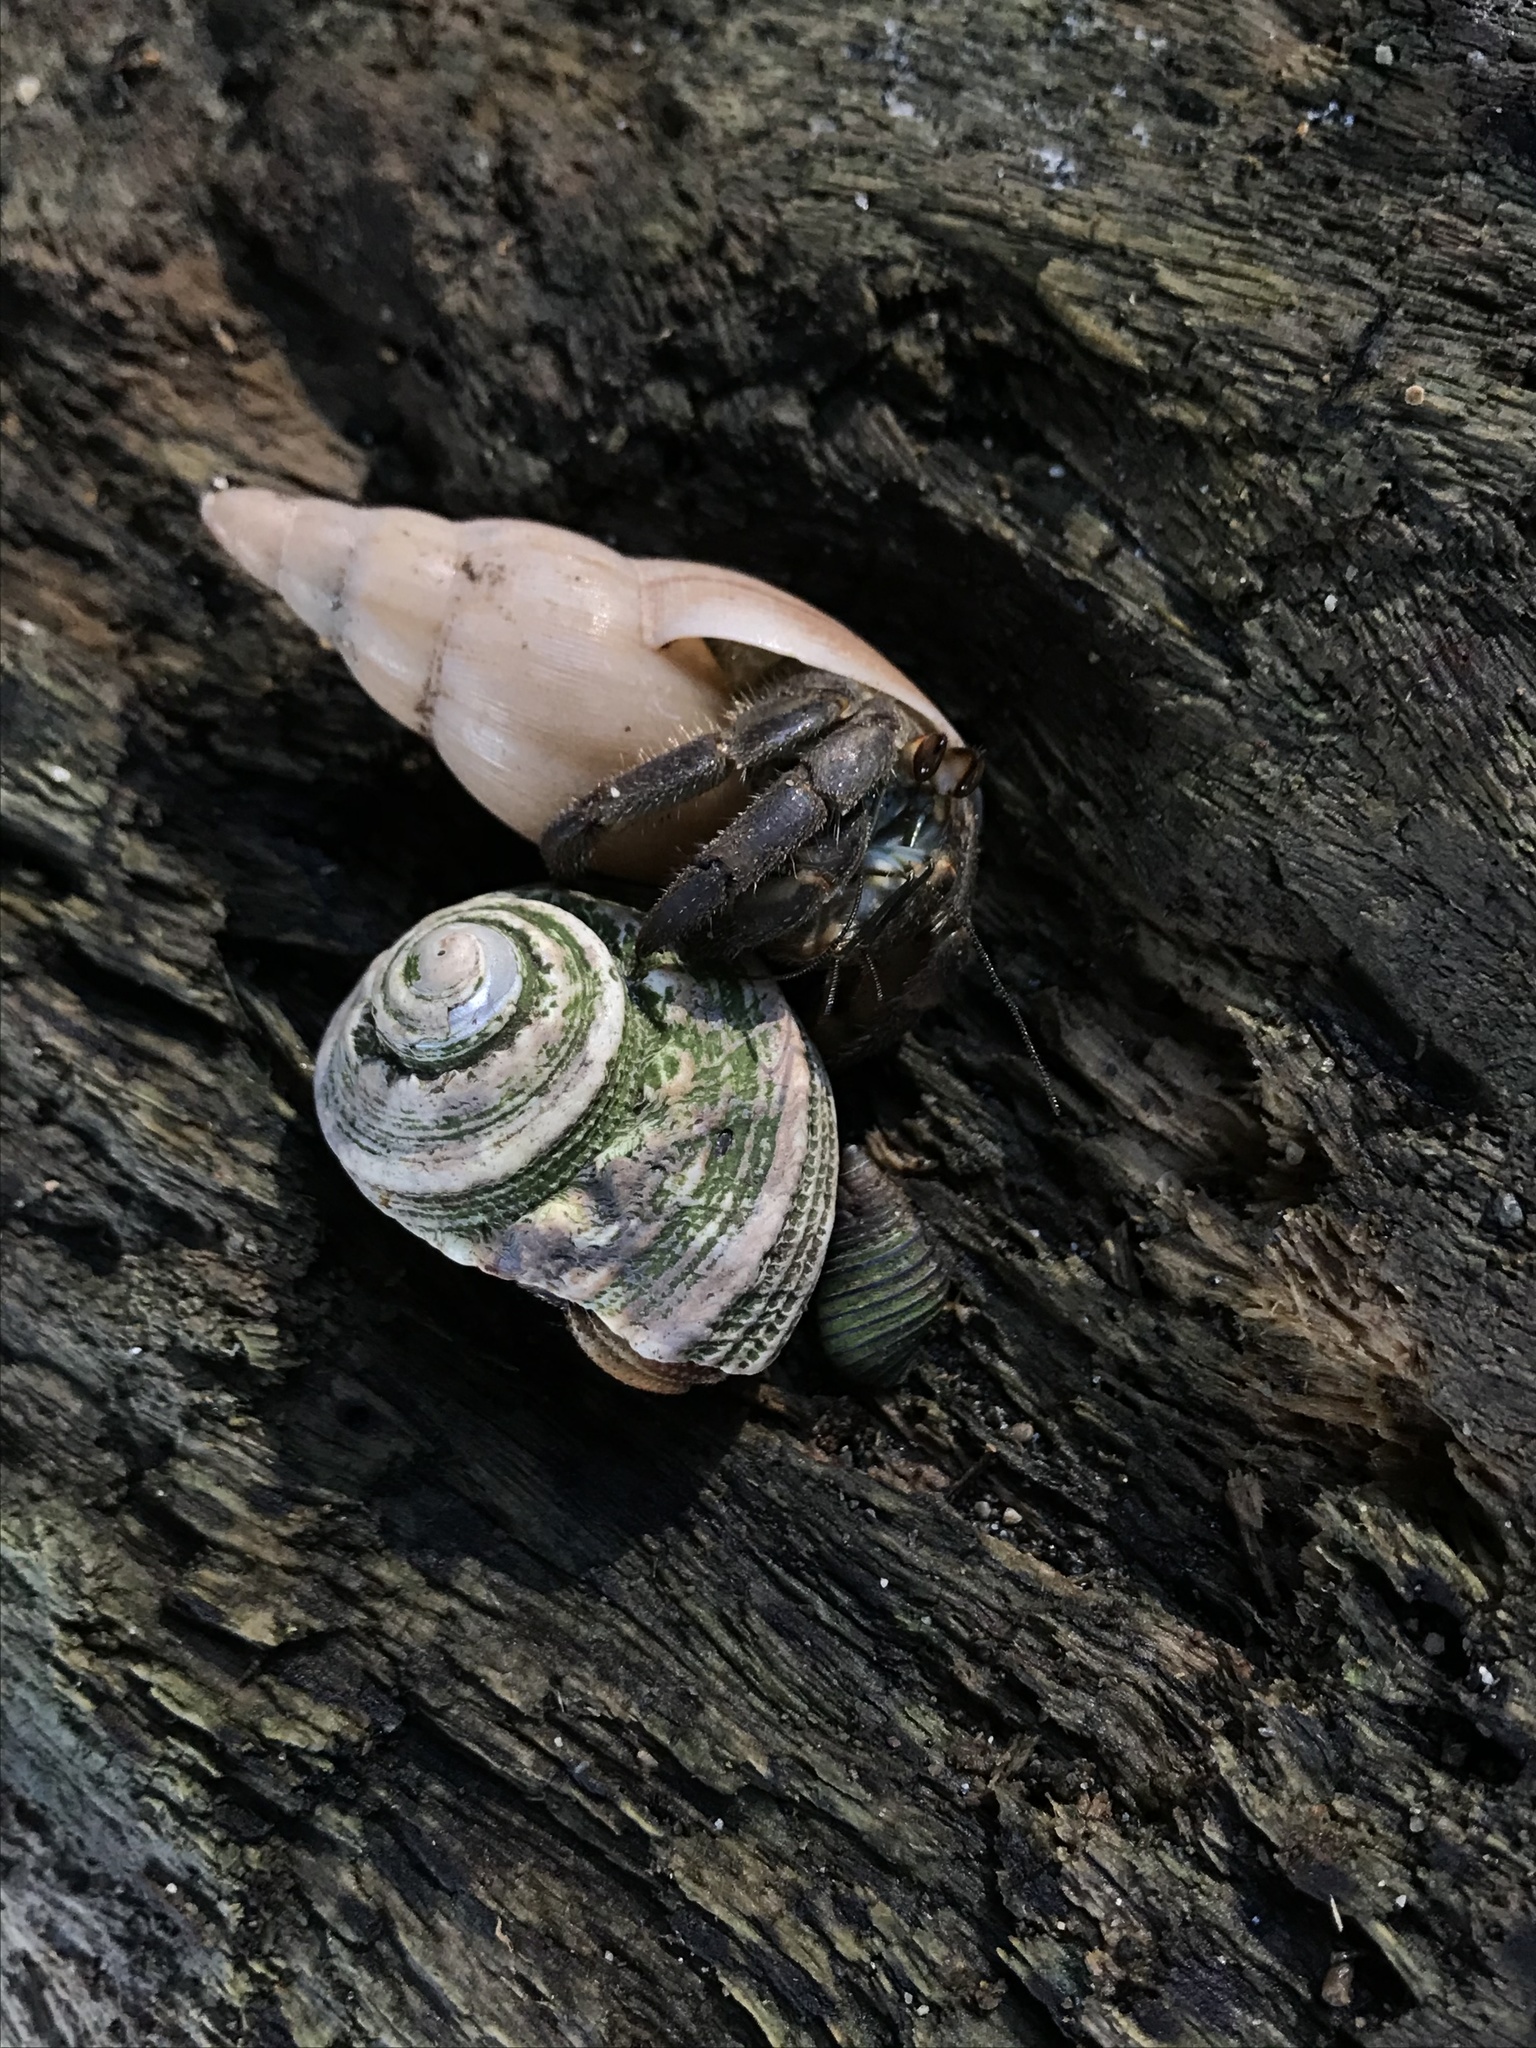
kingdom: Animalia
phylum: Arthropoda
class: Malacostraca
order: Decapoda
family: Coenobitidae
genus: Coenobita
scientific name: Coenobita compressus
